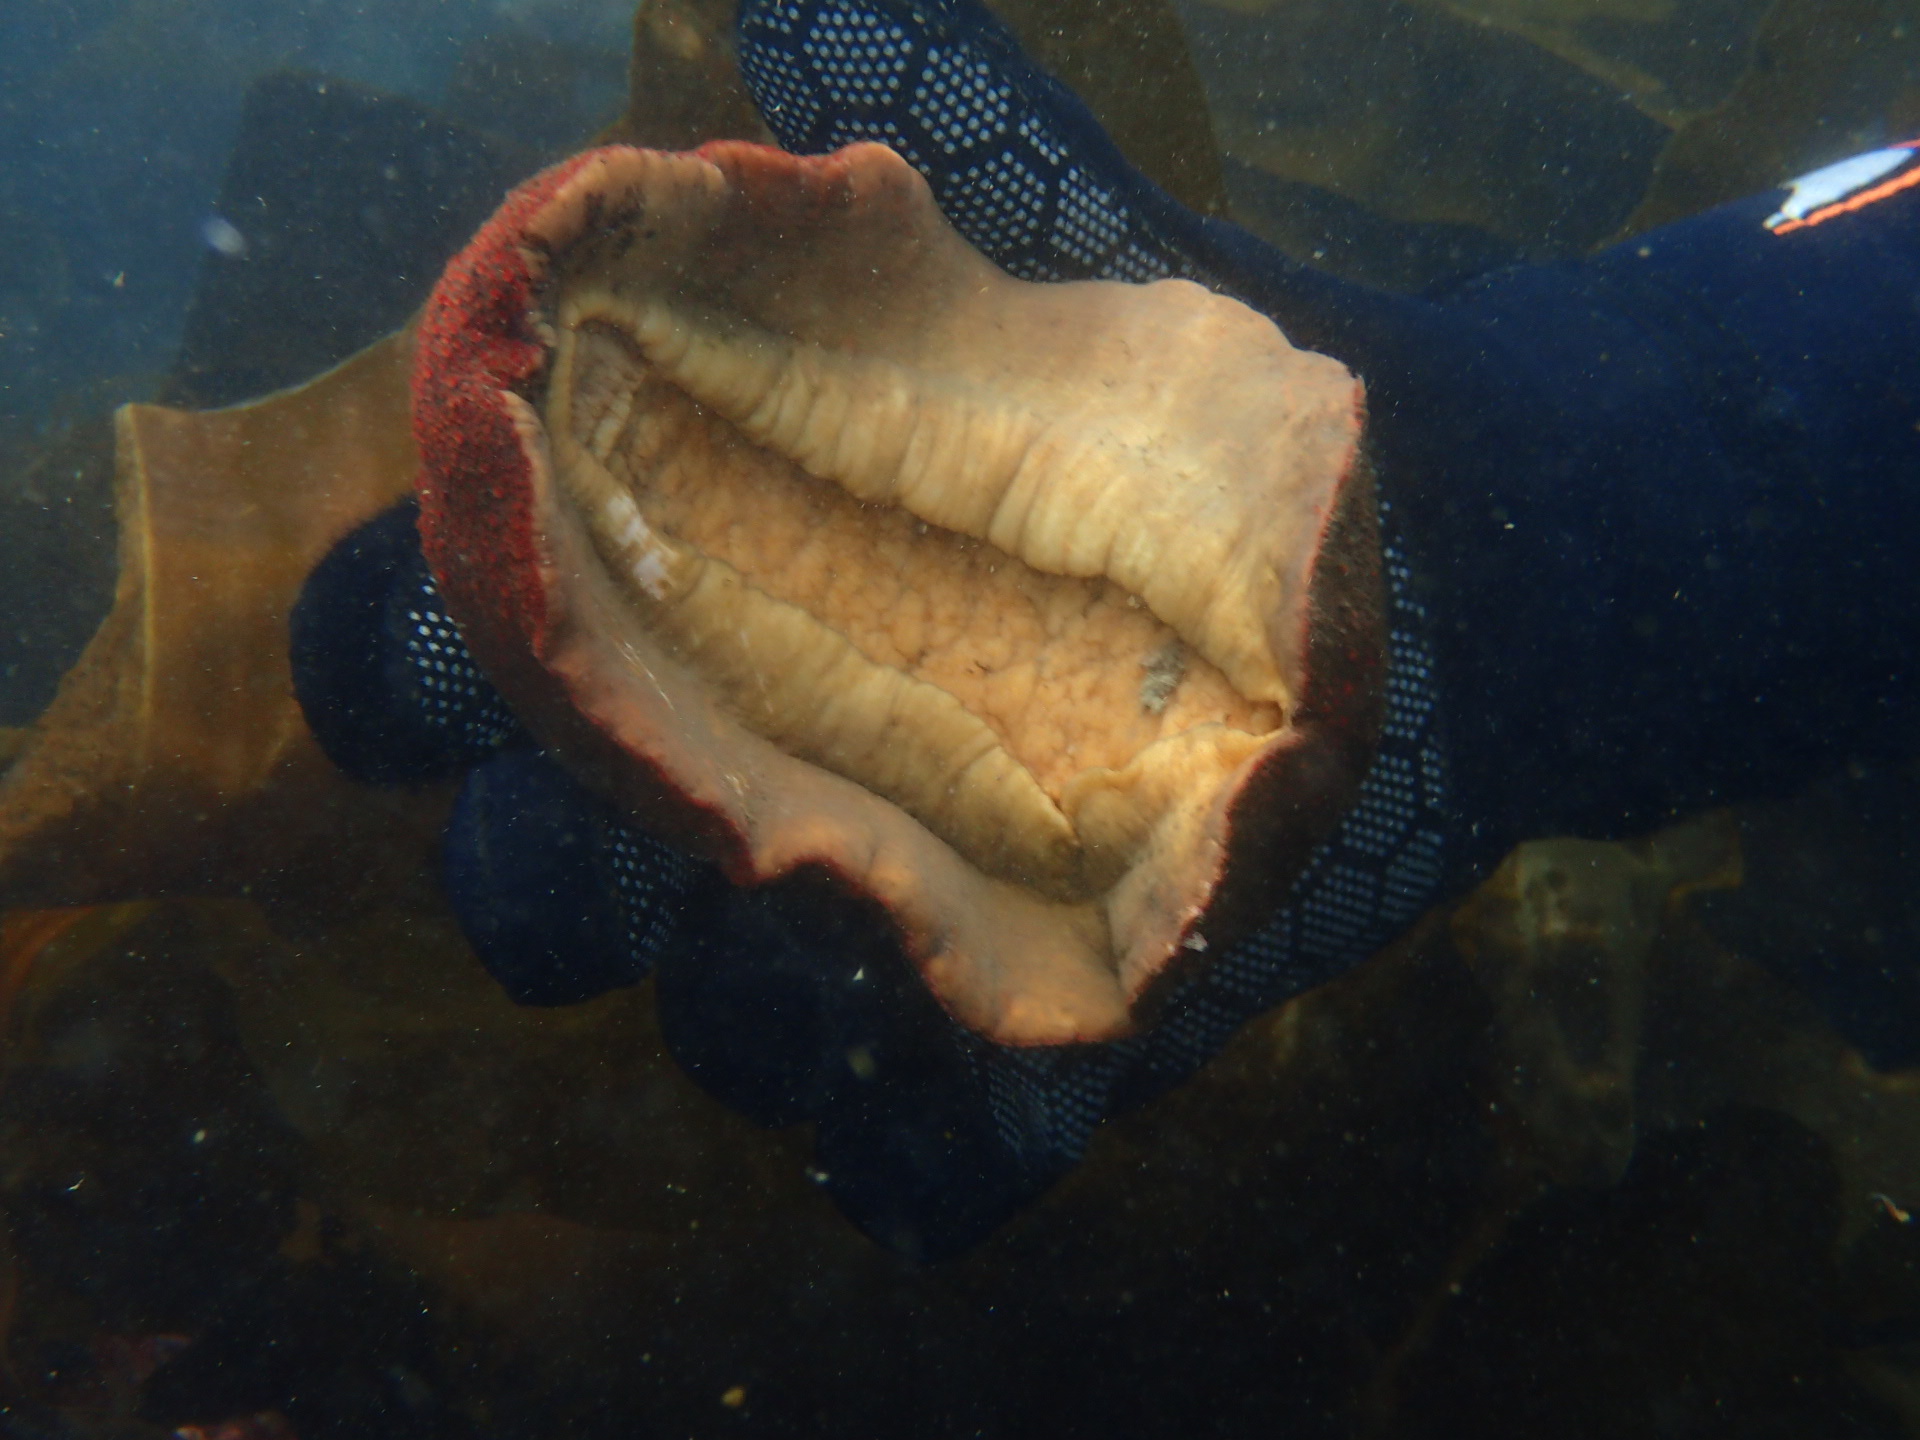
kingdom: Animalia
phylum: Mollusca
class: Polyplacophora
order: Chitonida
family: Acanthochitonidae
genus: Cryptochiton
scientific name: Cryptochiton stelleri
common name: Giant pacific chiton
